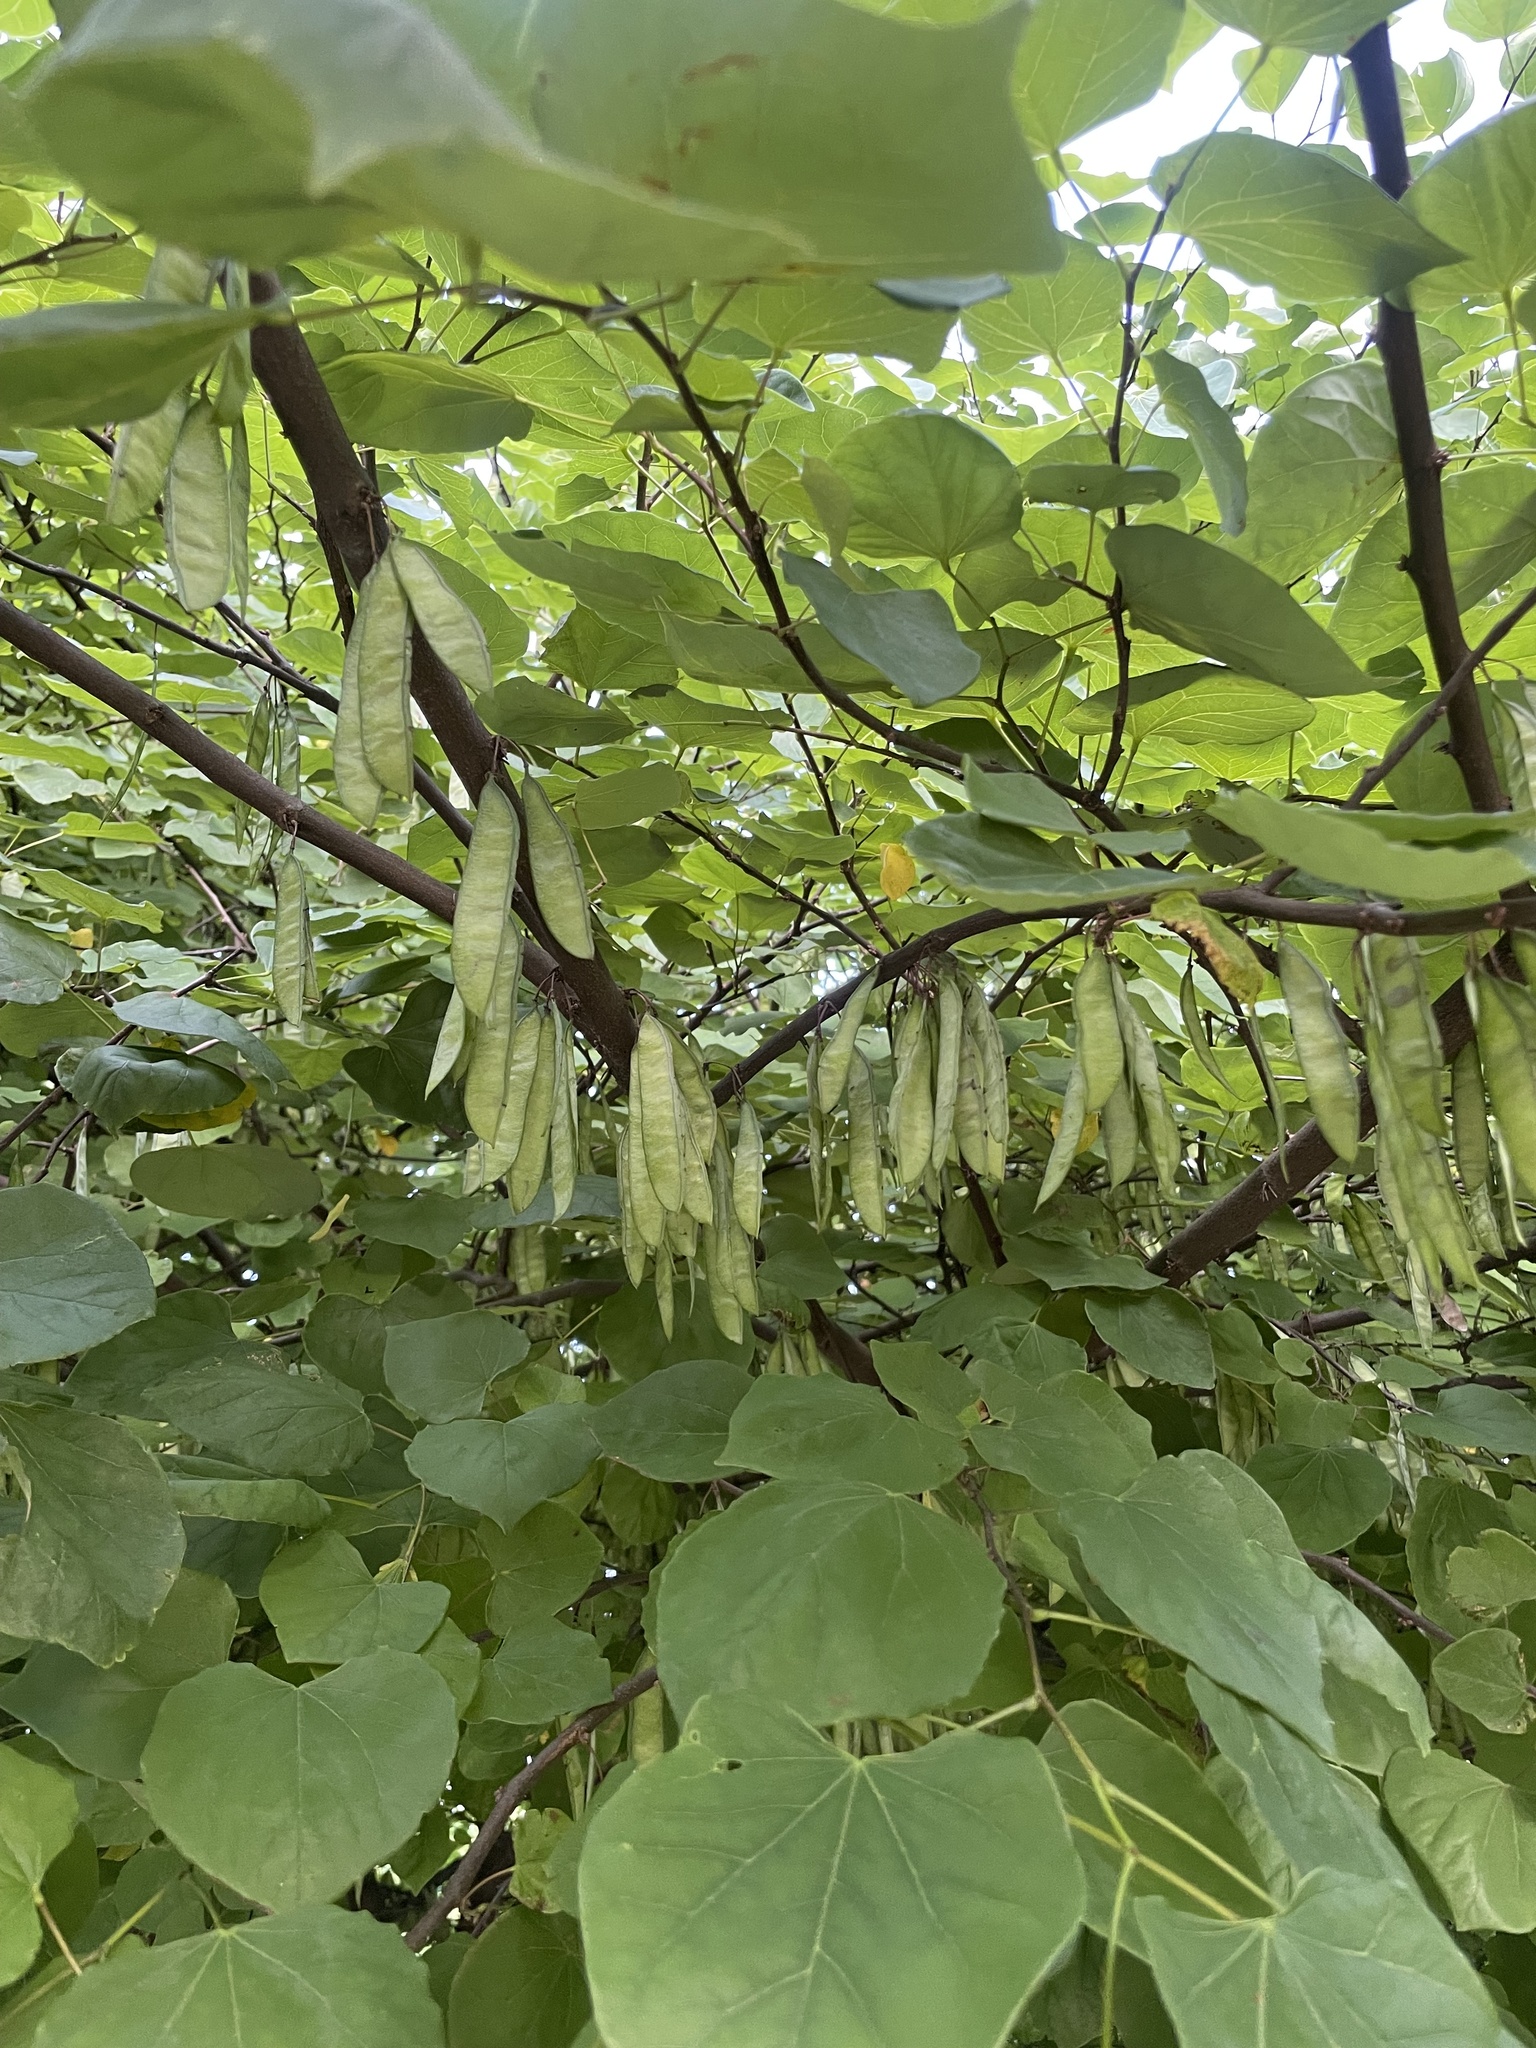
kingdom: Plantae
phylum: Tracheophyta
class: Magnoliopsida
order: Fabales
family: Fabaceae
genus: Cercis
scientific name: Cercis canadensis
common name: Eastern redbud
